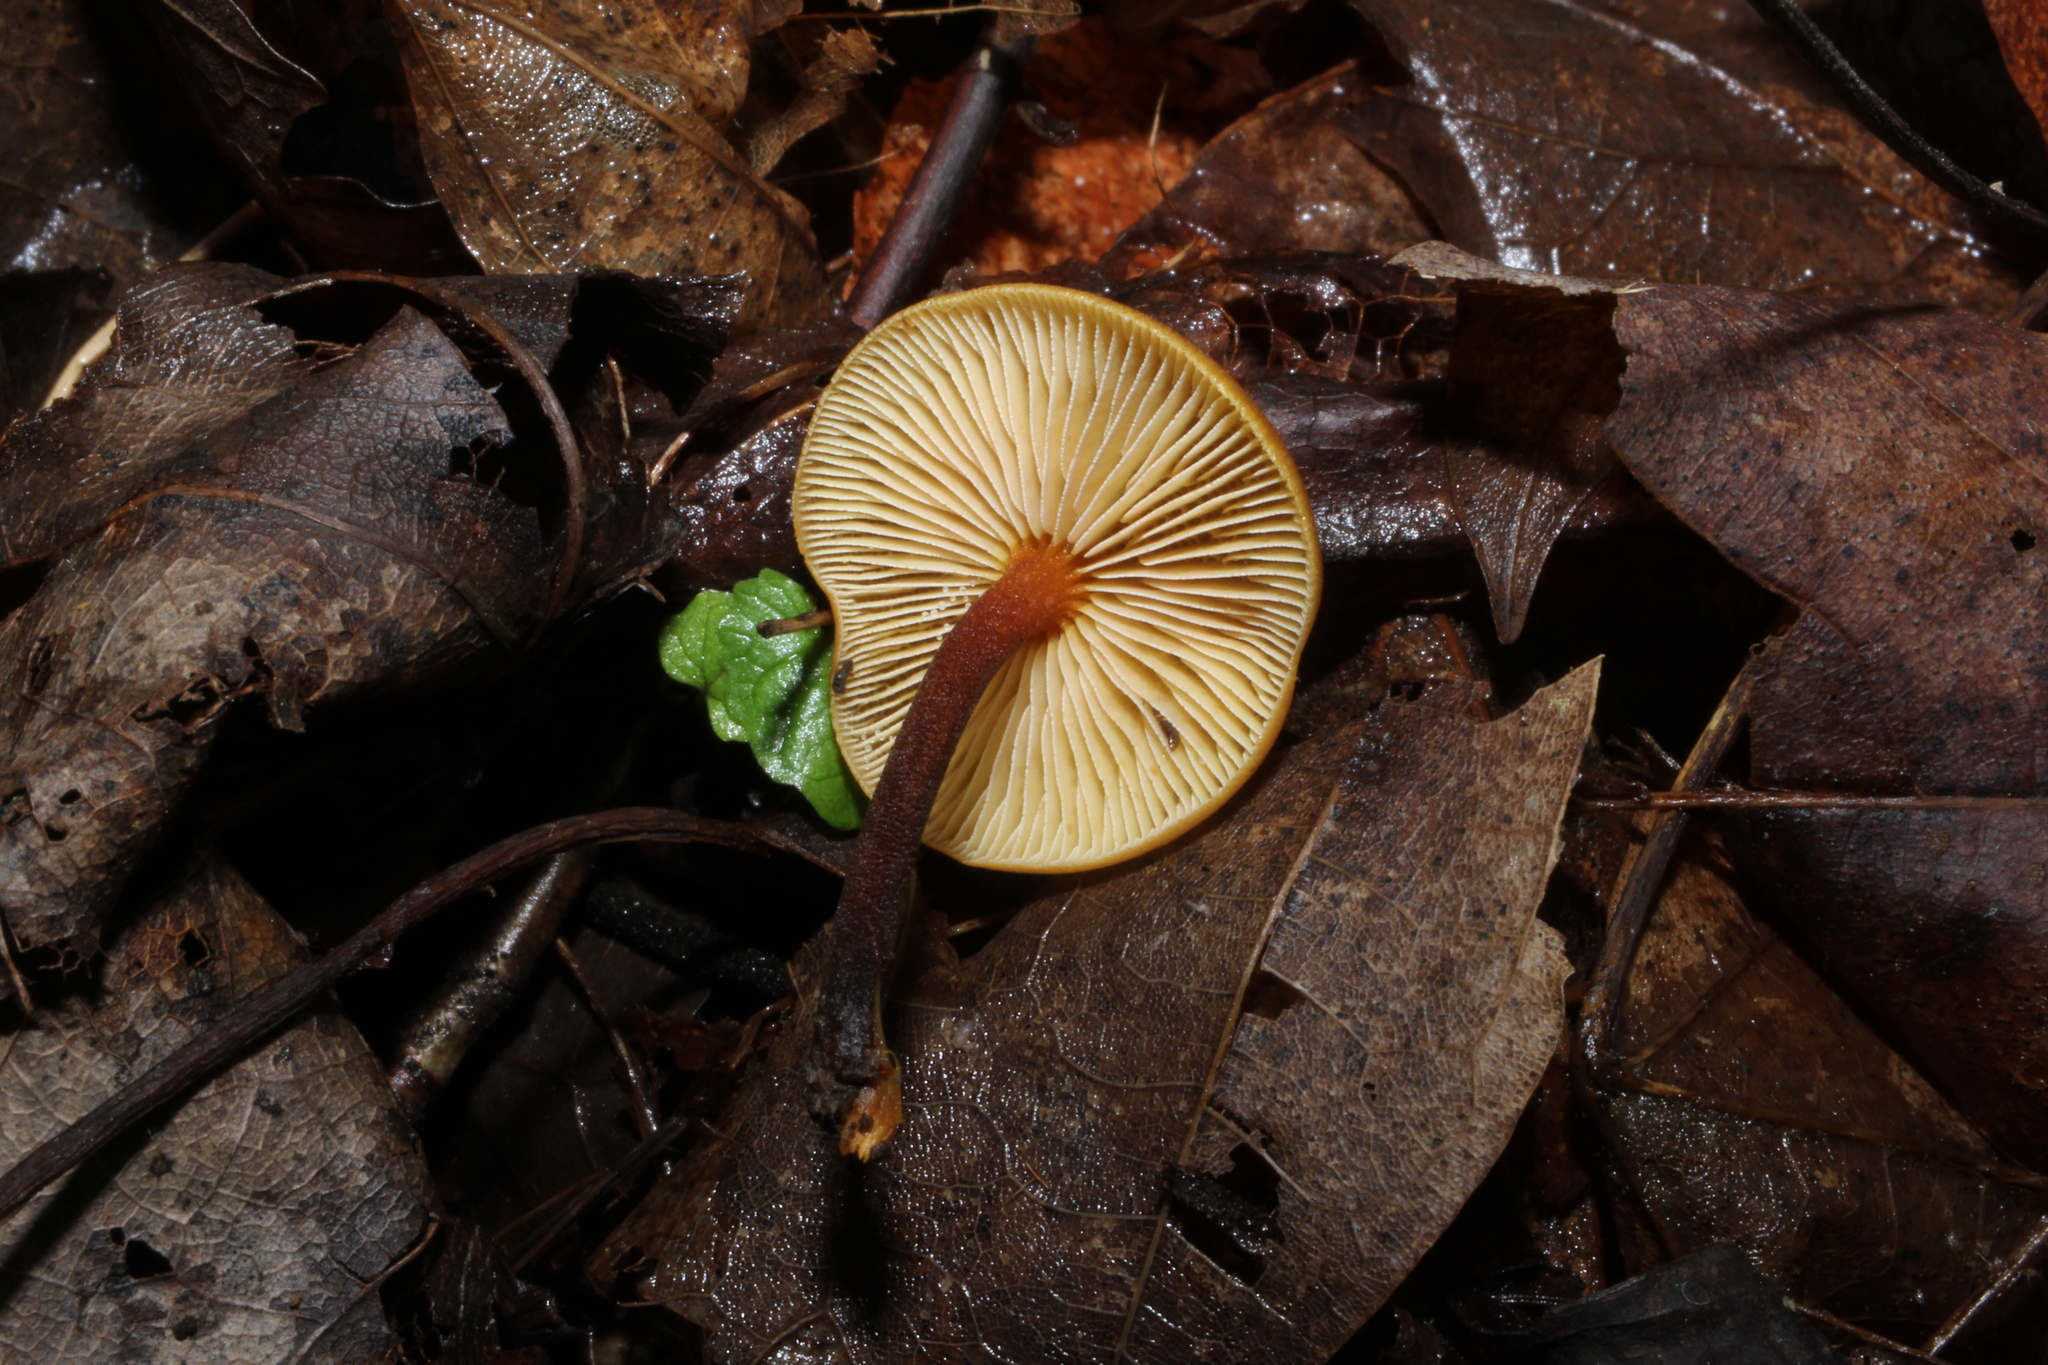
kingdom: Fungi
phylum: Basidiomycota
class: Agaricomycetes
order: Agaricales
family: Mycenaceae
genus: Xeromphalina
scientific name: Xeromphalina tenuipes
